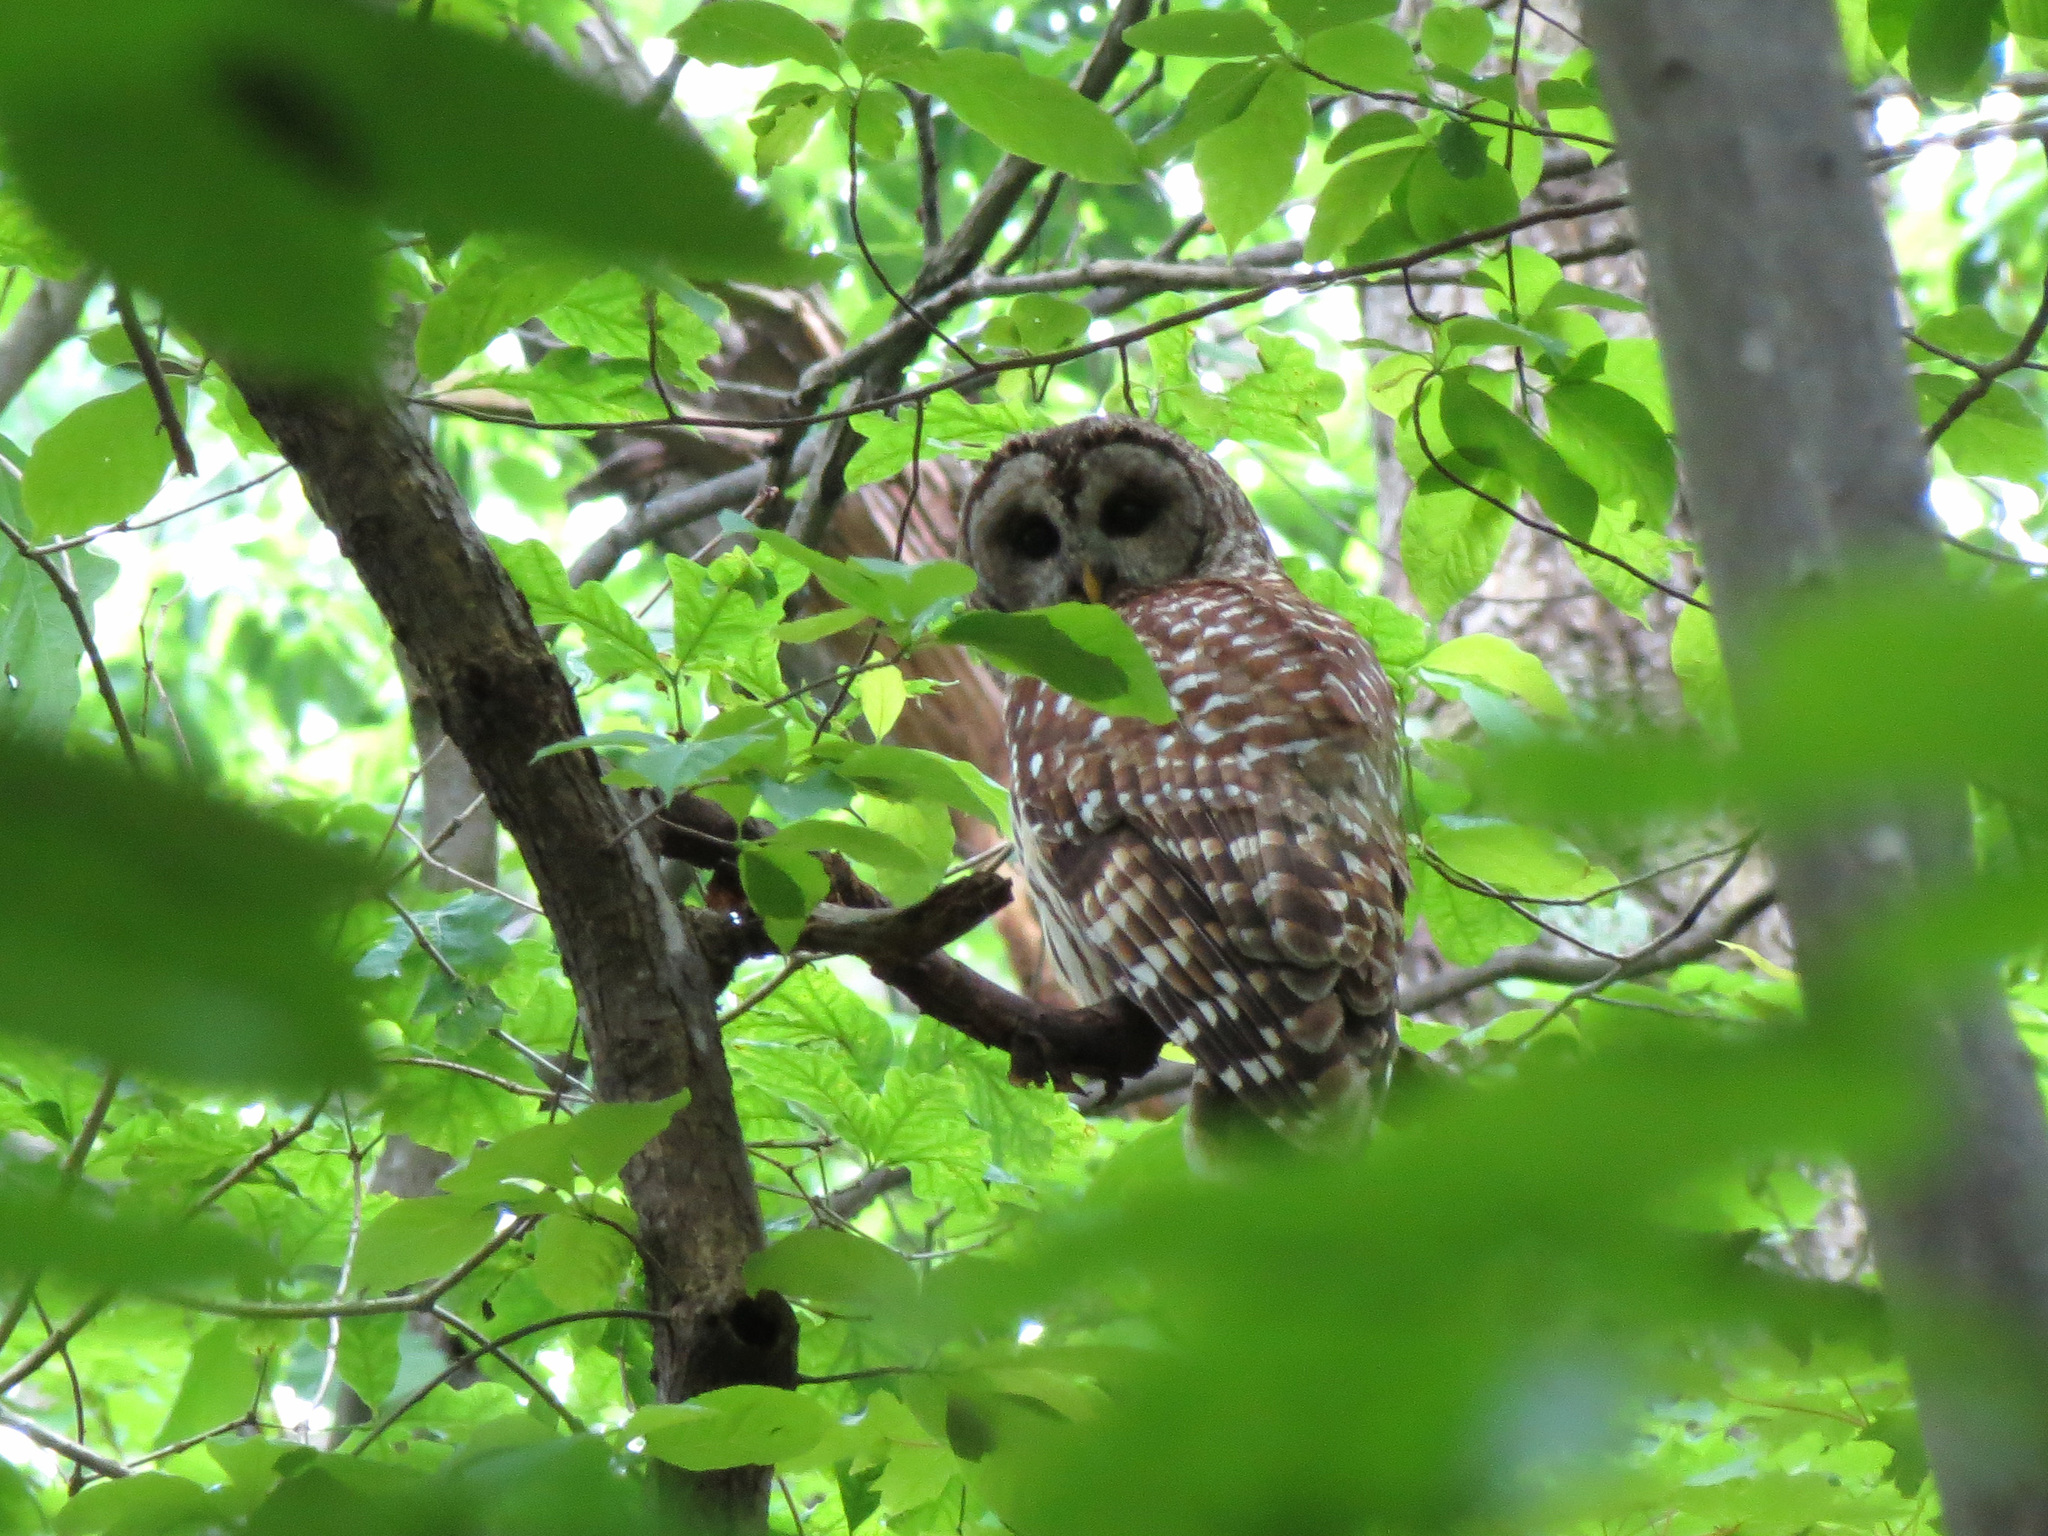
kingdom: Animalia
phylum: Chordata
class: Aves
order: Strigiformes
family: Strigidae
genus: Strix
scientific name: Strix varia
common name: Barred owl
